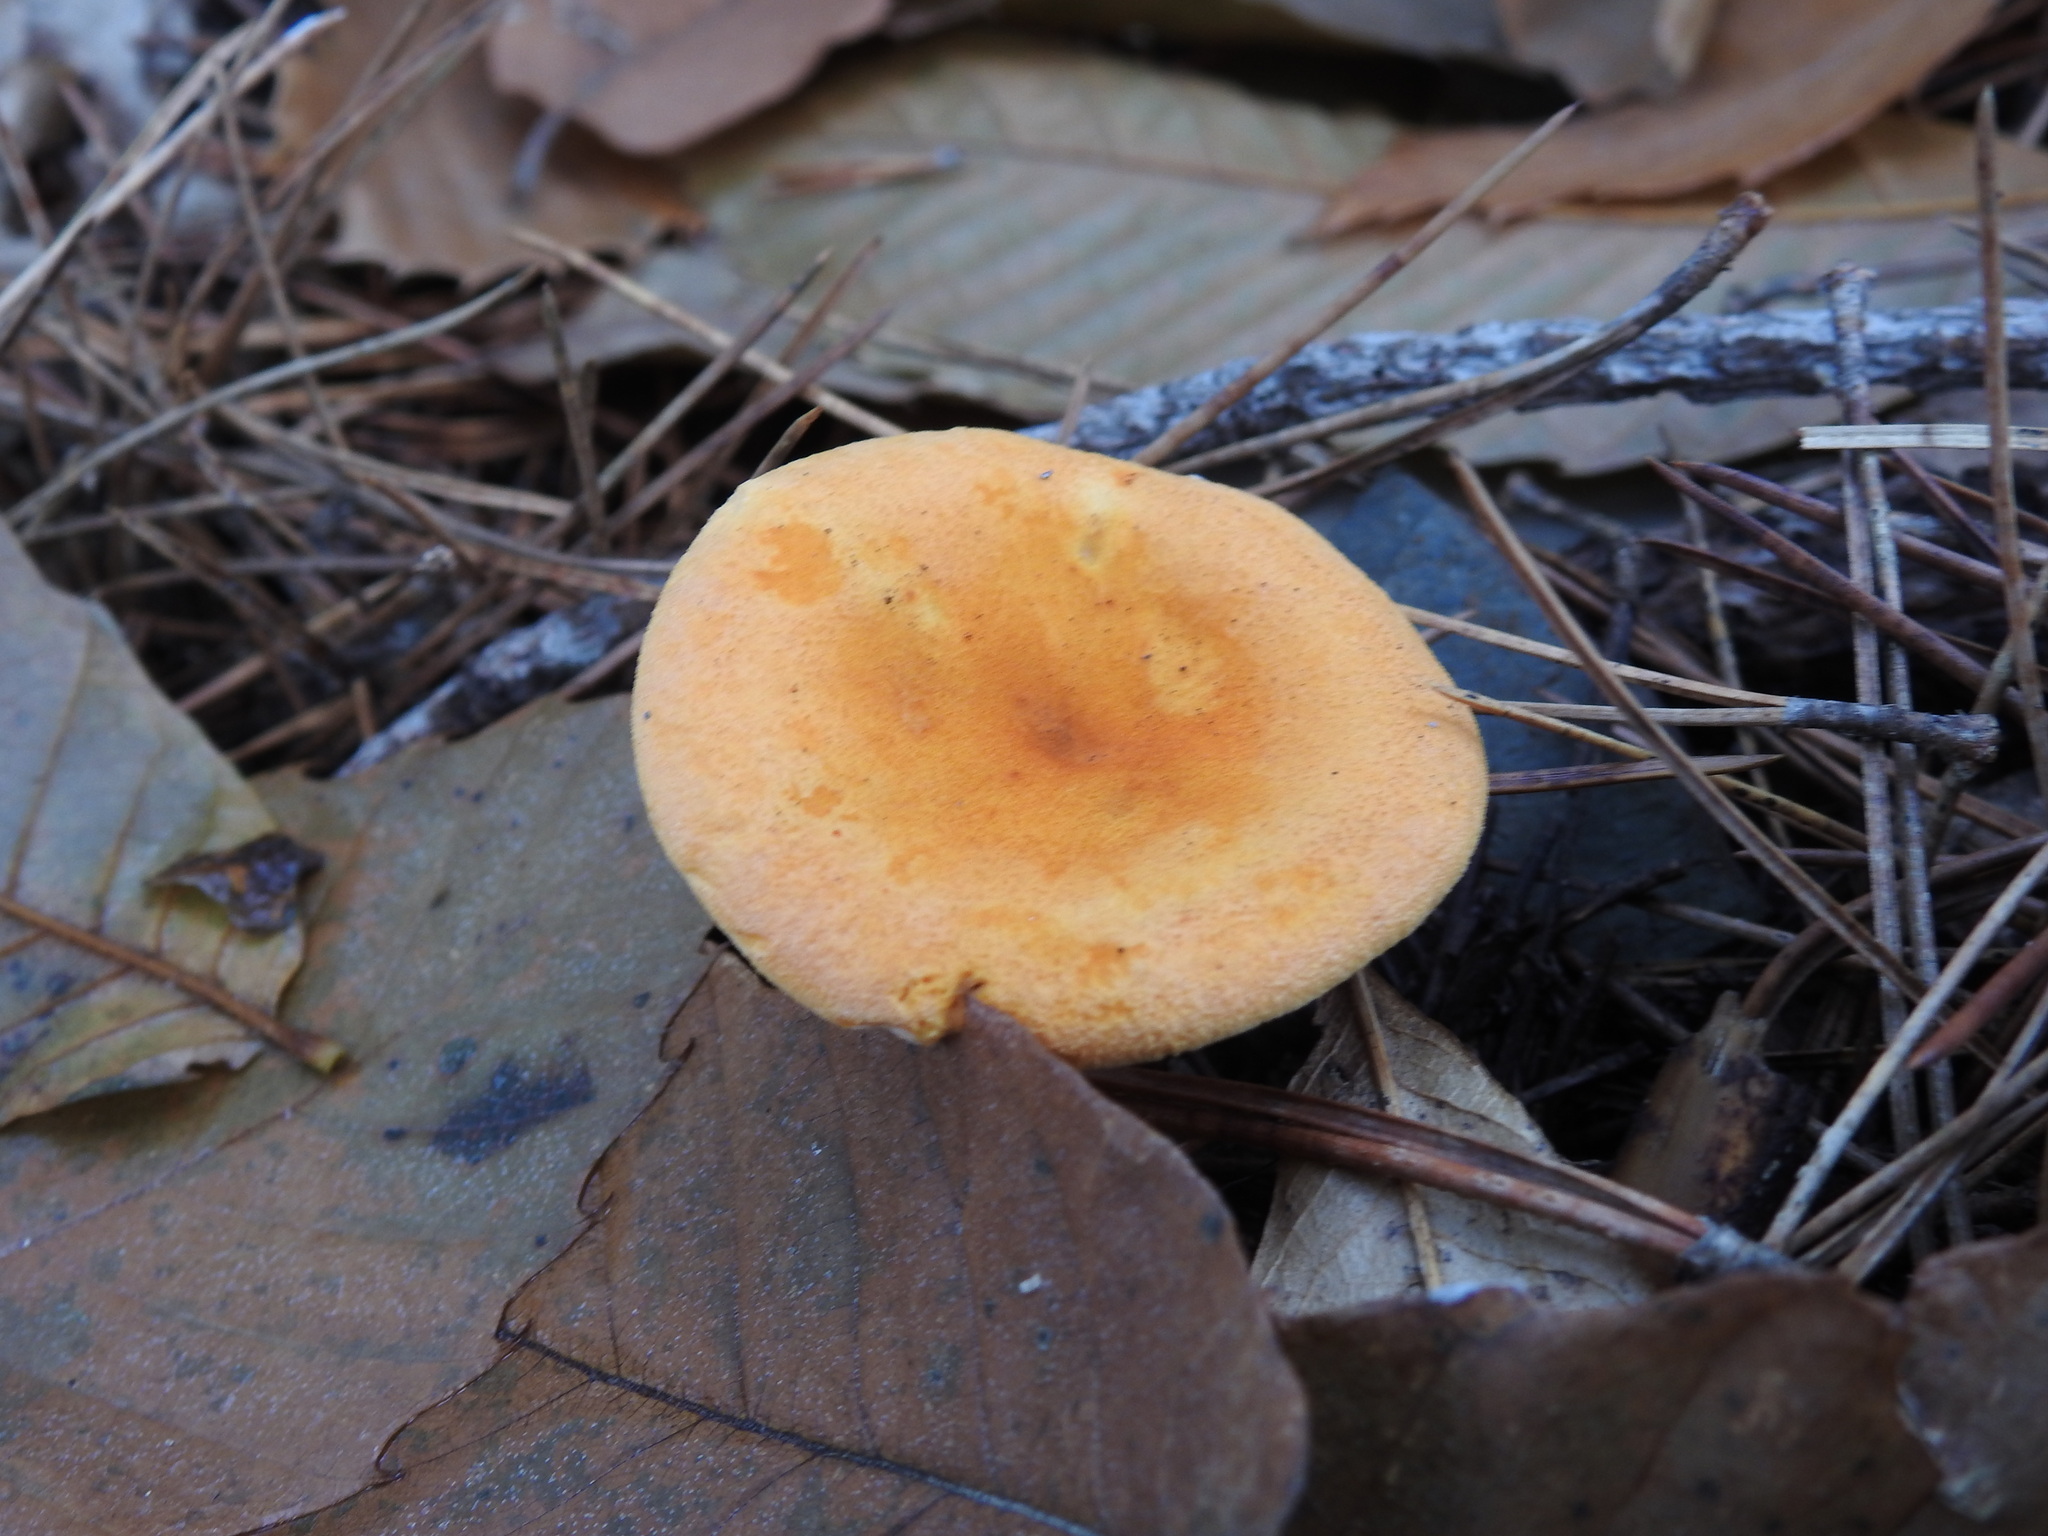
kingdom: Fungi
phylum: Basidiomycota
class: Agaricomycetes
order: Boletales
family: Hygrophoropsidaceae
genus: Hygrophoropsis
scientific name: Hygrophoropsis aurantiaca
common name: False chanterelle
